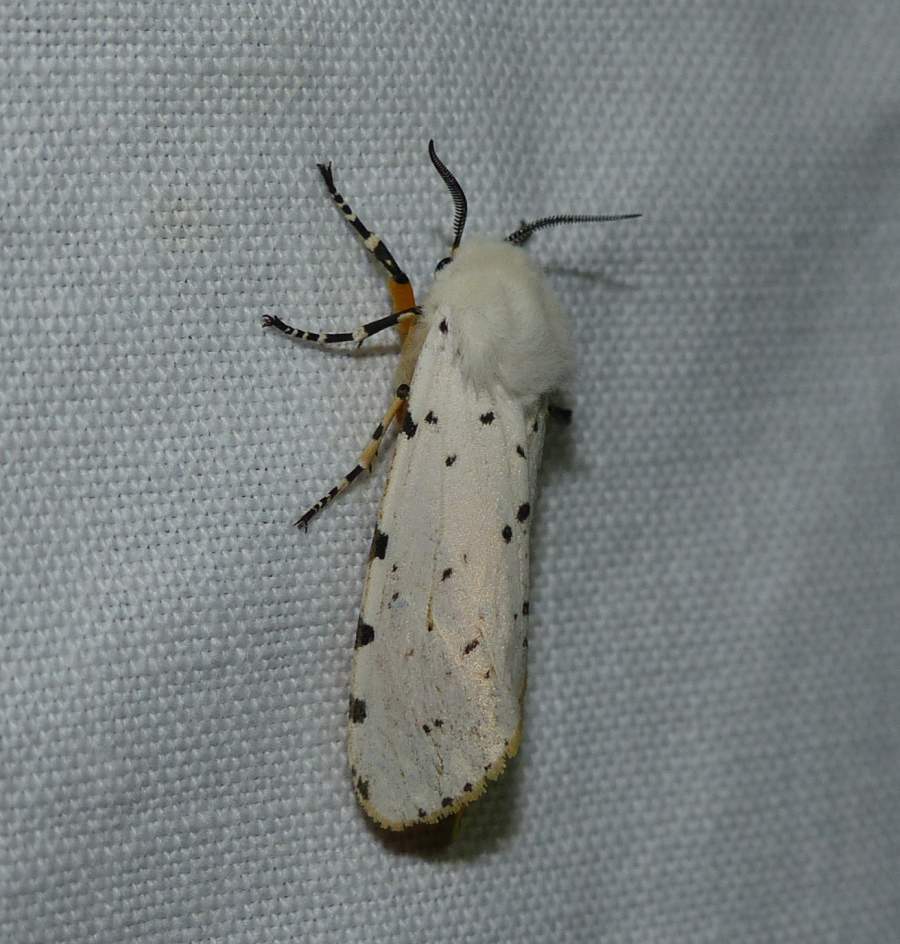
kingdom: Animalia
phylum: Arthropoda
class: Insecta
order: Lepidoptera
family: Erebidae
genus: Estigmene
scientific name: Estigmene acrea
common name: Salt marsh moth
